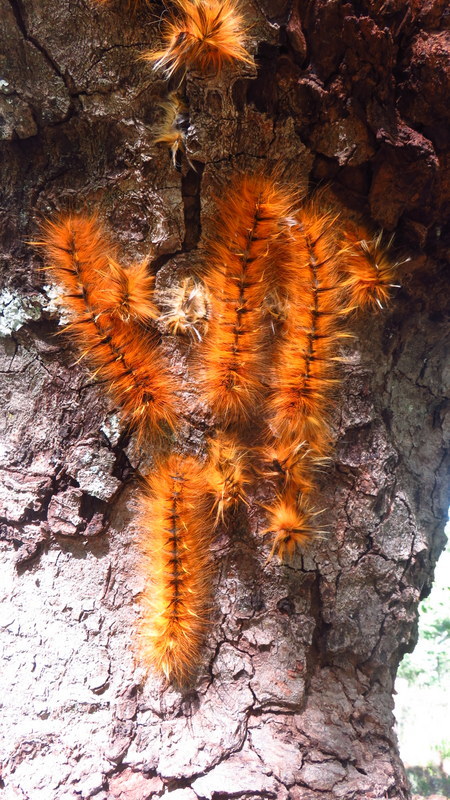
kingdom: Animalia
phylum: Arthropoda
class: Insecta
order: Lepidoptera
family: Lasiocampidae
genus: Gonometa
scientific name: Gonometa robusta
